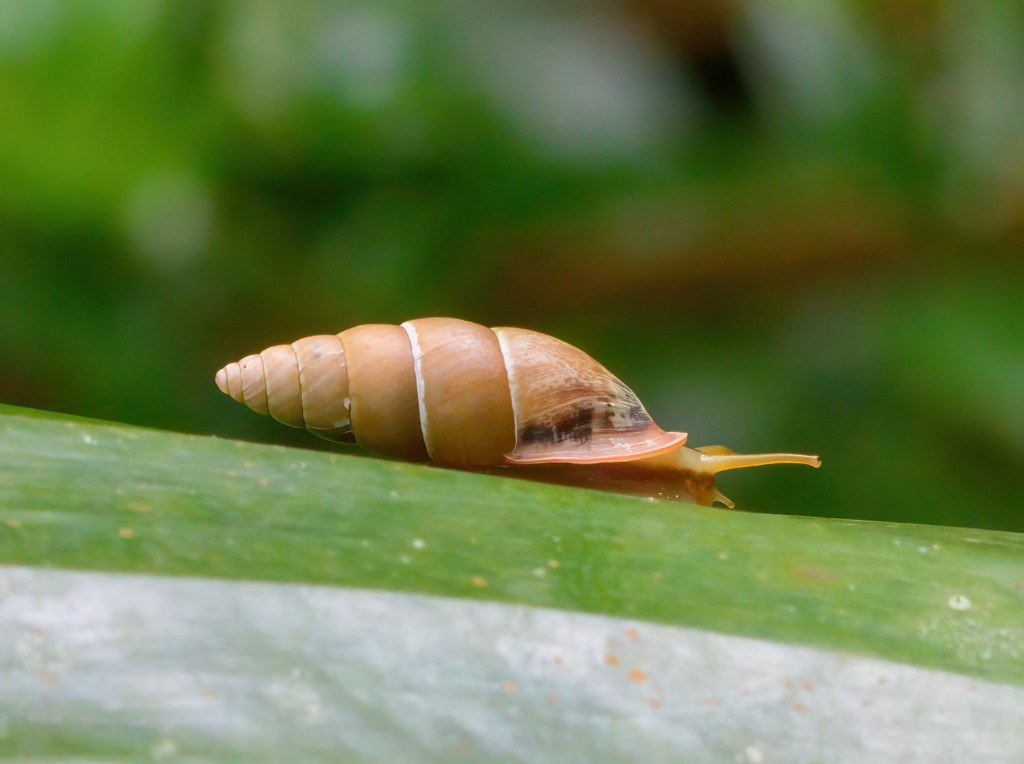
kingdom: Animalia
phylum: Mollusca
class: Gastropoda
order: Stylommatophora
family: Odontostomidae
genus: Bahiensis
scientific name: Bahiensis punctatissimus
